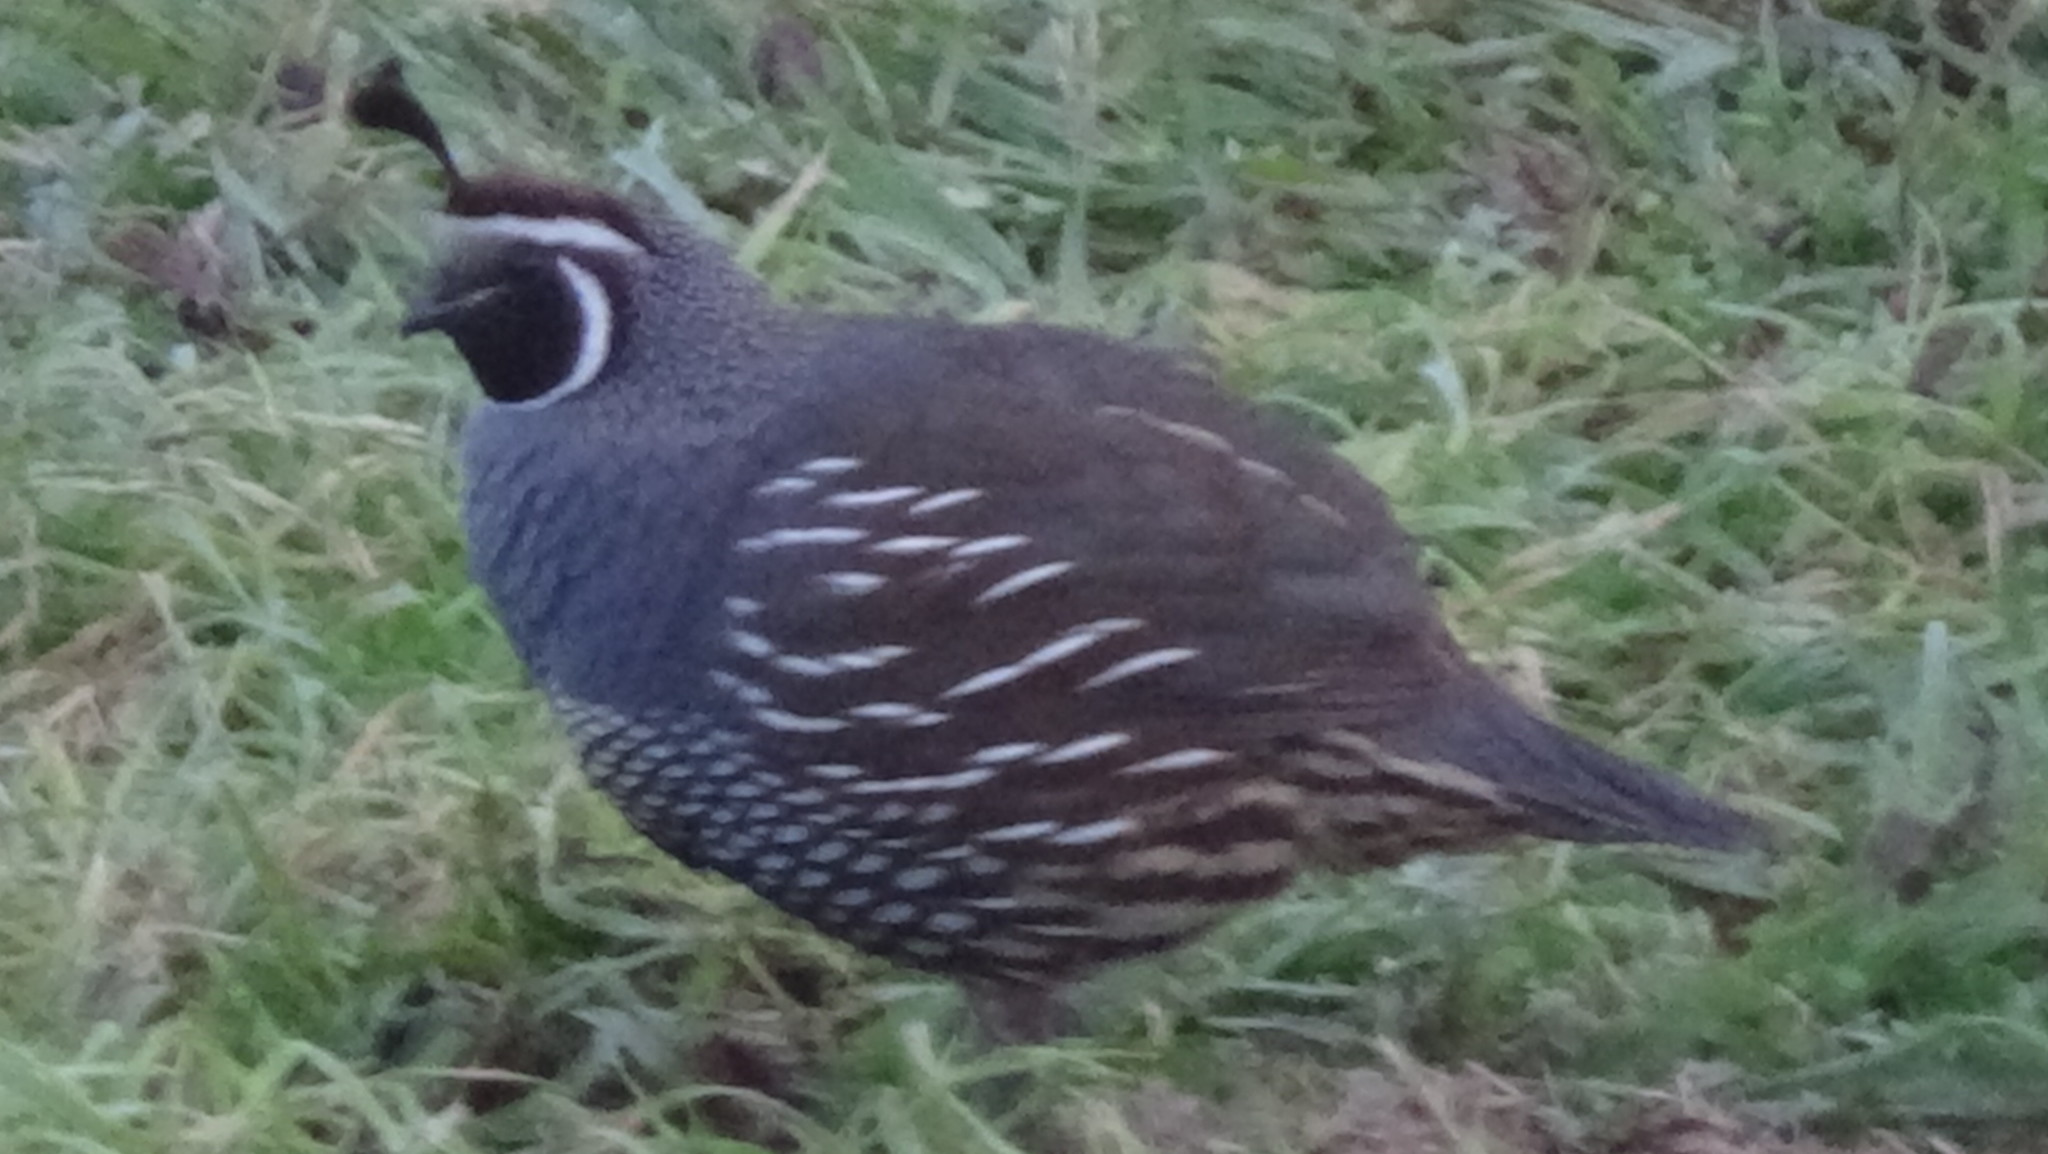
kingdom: Animalia
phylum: Chordata
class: Aves
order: Galliformes
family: Odontophoridae
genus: Callipepla
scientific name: Callipepla californica
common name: California quail
